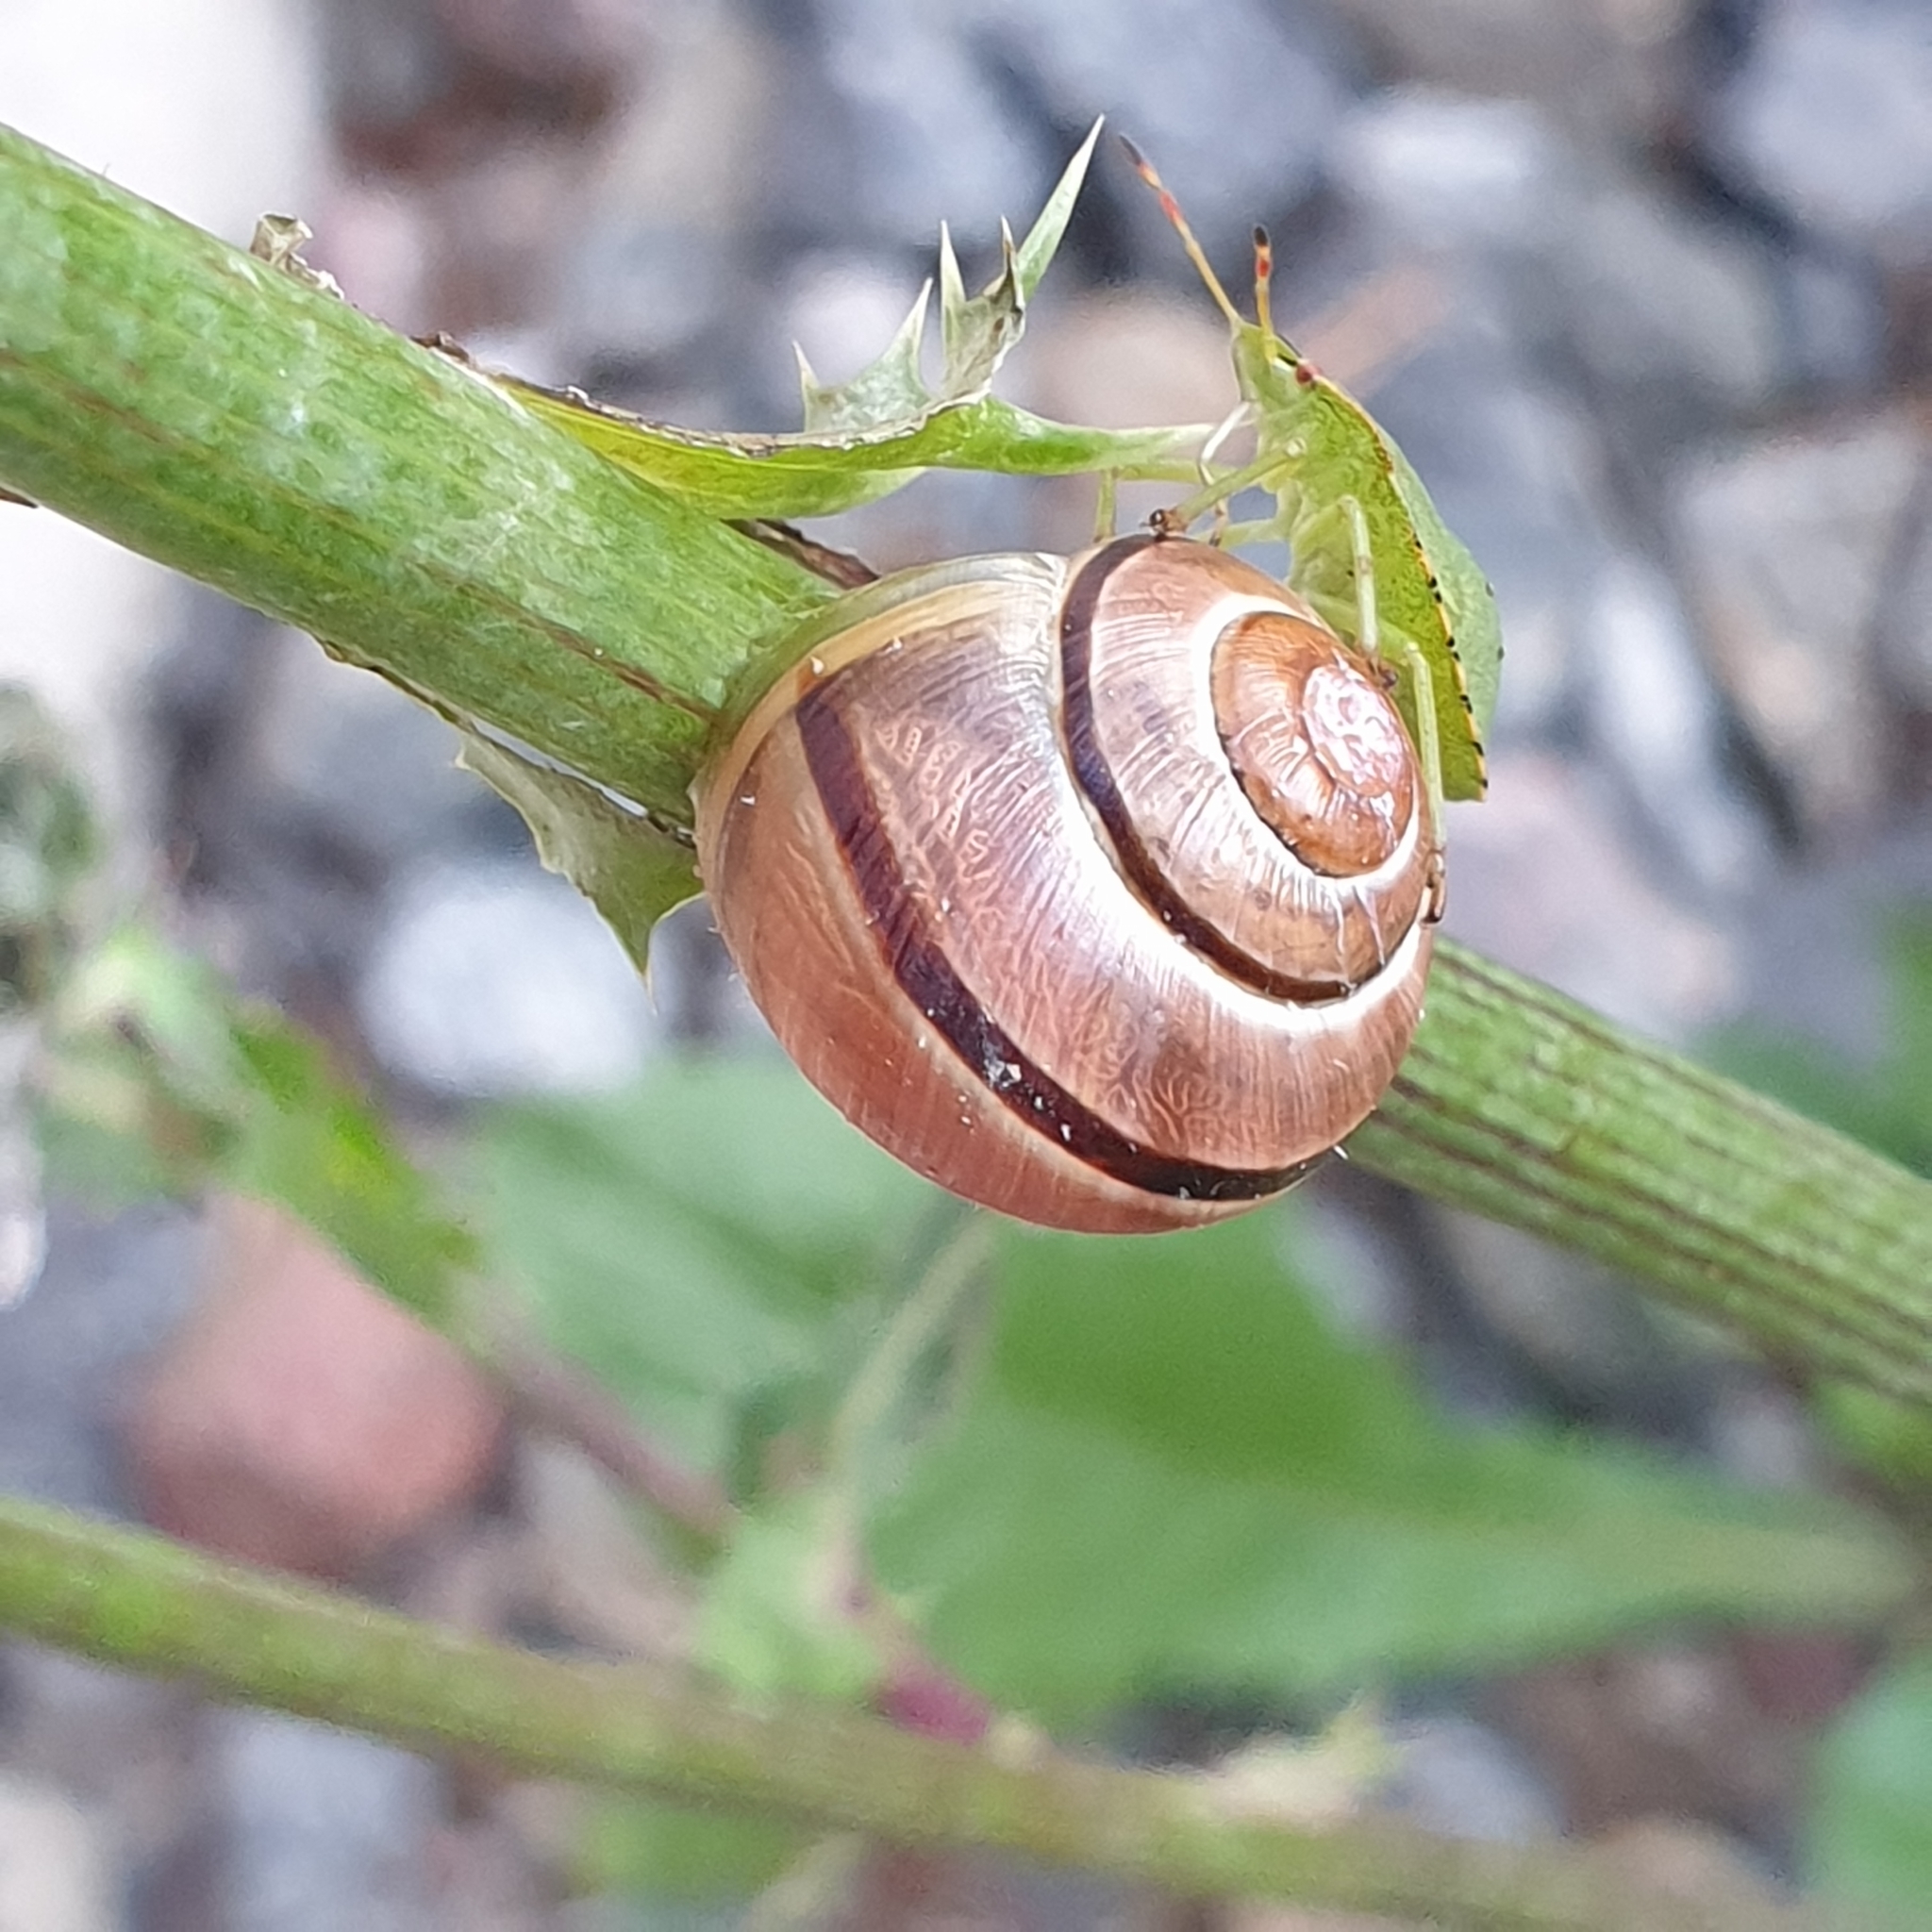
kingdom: Animalia
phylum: Mollusca
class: Gastropoda
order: Stylommatophora
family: Helicidae
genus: Cepaea
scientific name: Cepaea nemoralis
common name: Grovesnail
